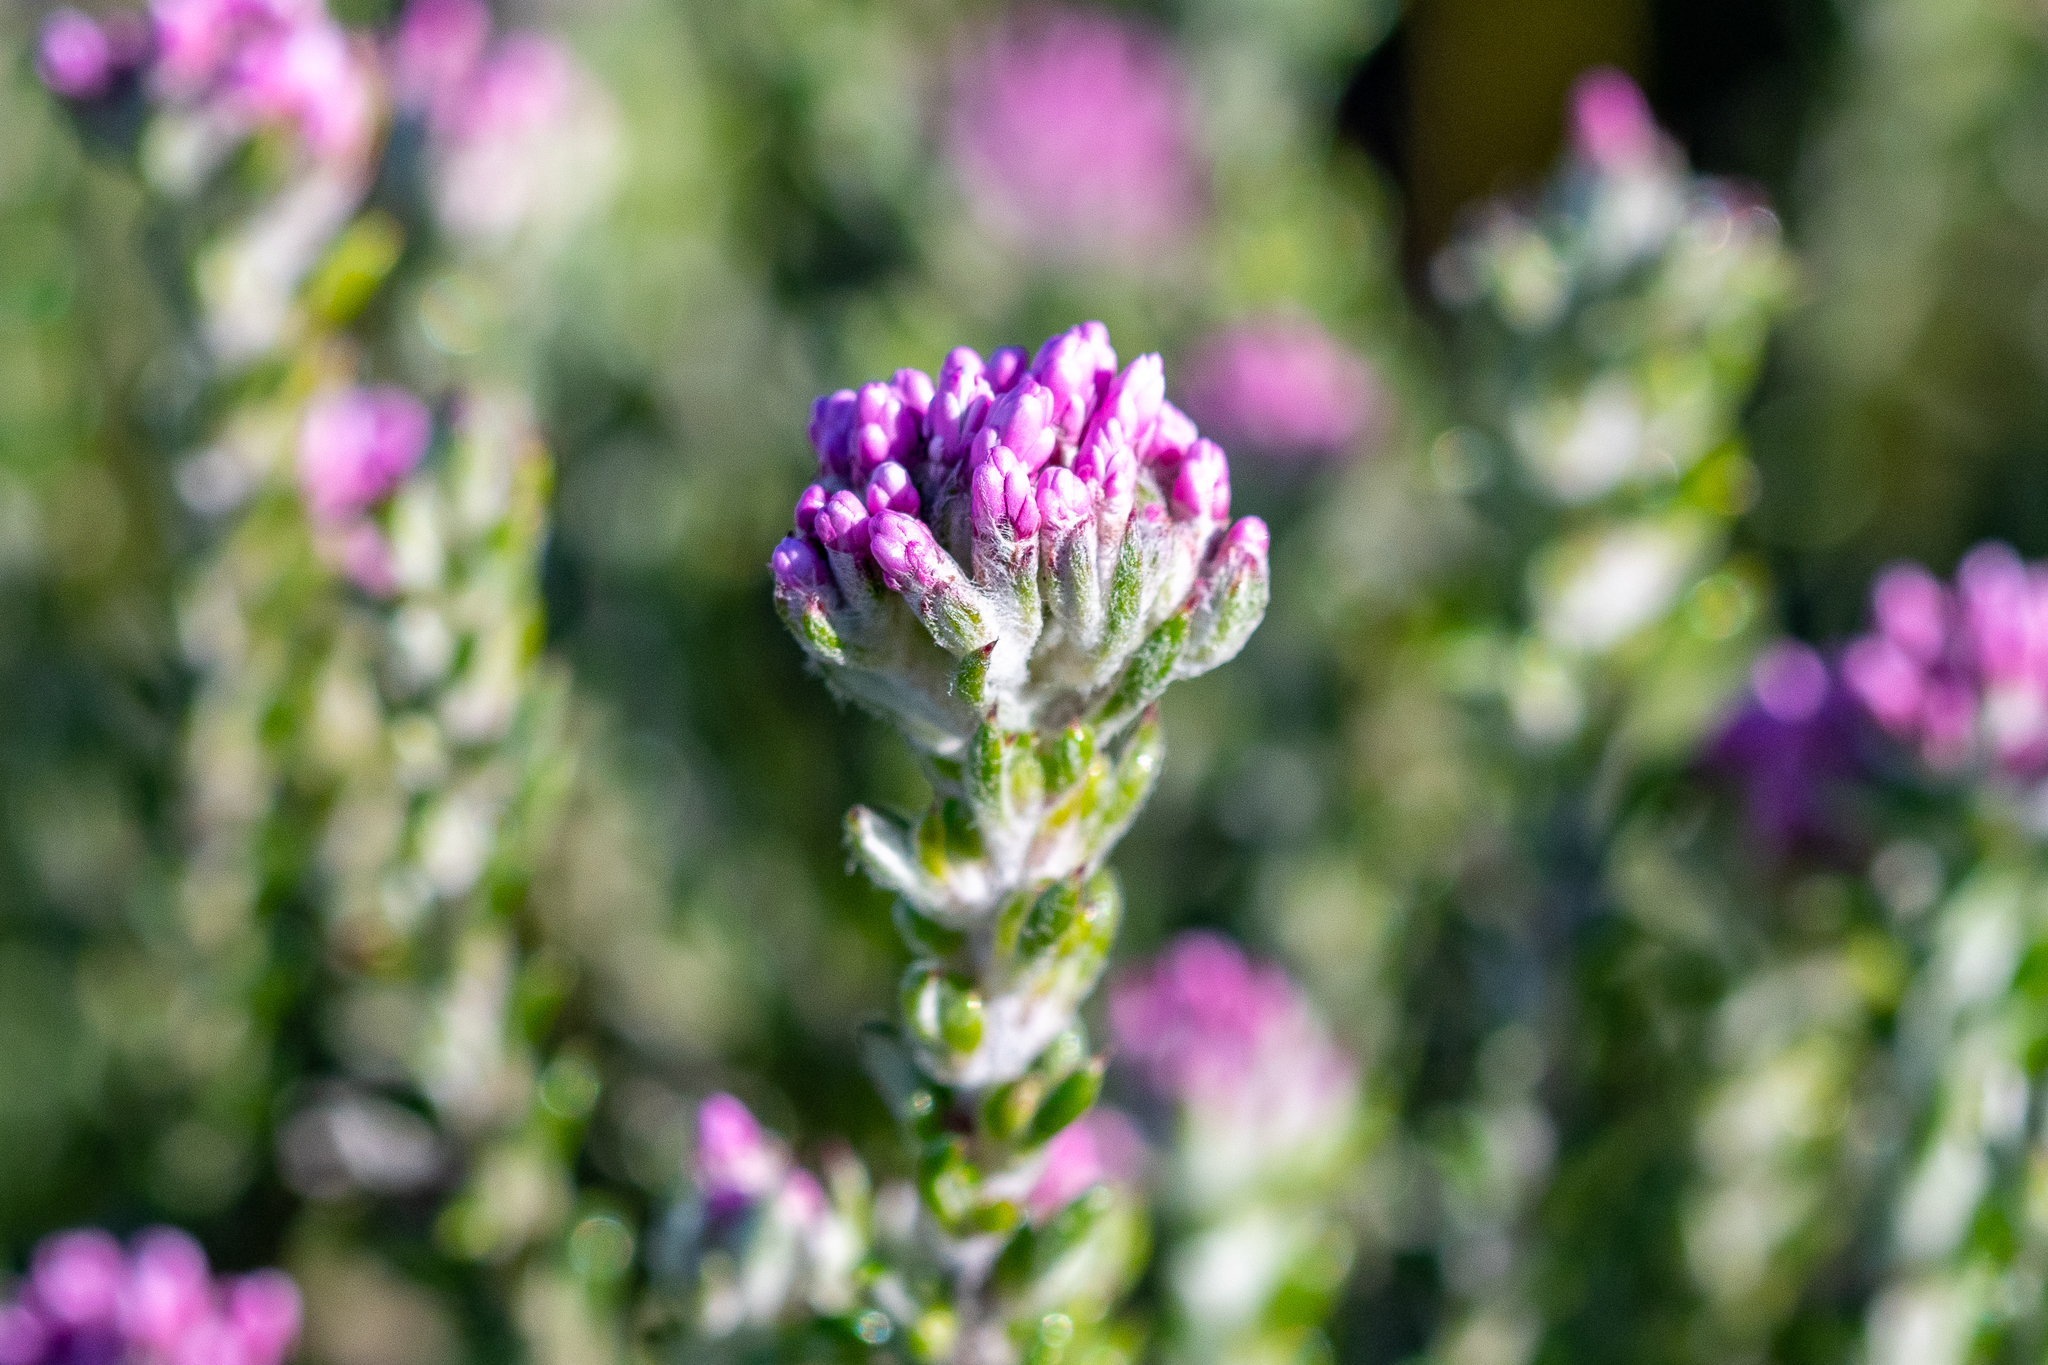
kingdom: Plantae
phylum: Tracheophyta
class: Magnoliopsida
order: Asterales
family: Asteraceae
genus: Metalasia
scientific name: Metalasia cymbifolia
